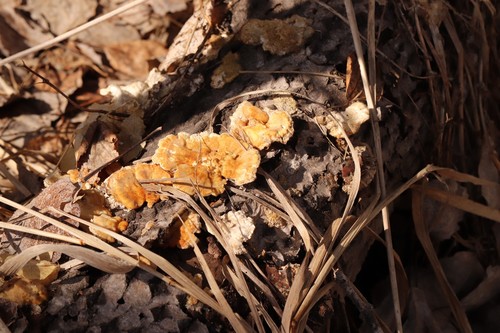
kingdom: Fungi
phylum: Basidiomycota
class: Agaricomycetes
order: Polyporales
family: Polyporaceae
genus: Trametes
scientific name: Trametes ochracea
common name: Ochre bracket
